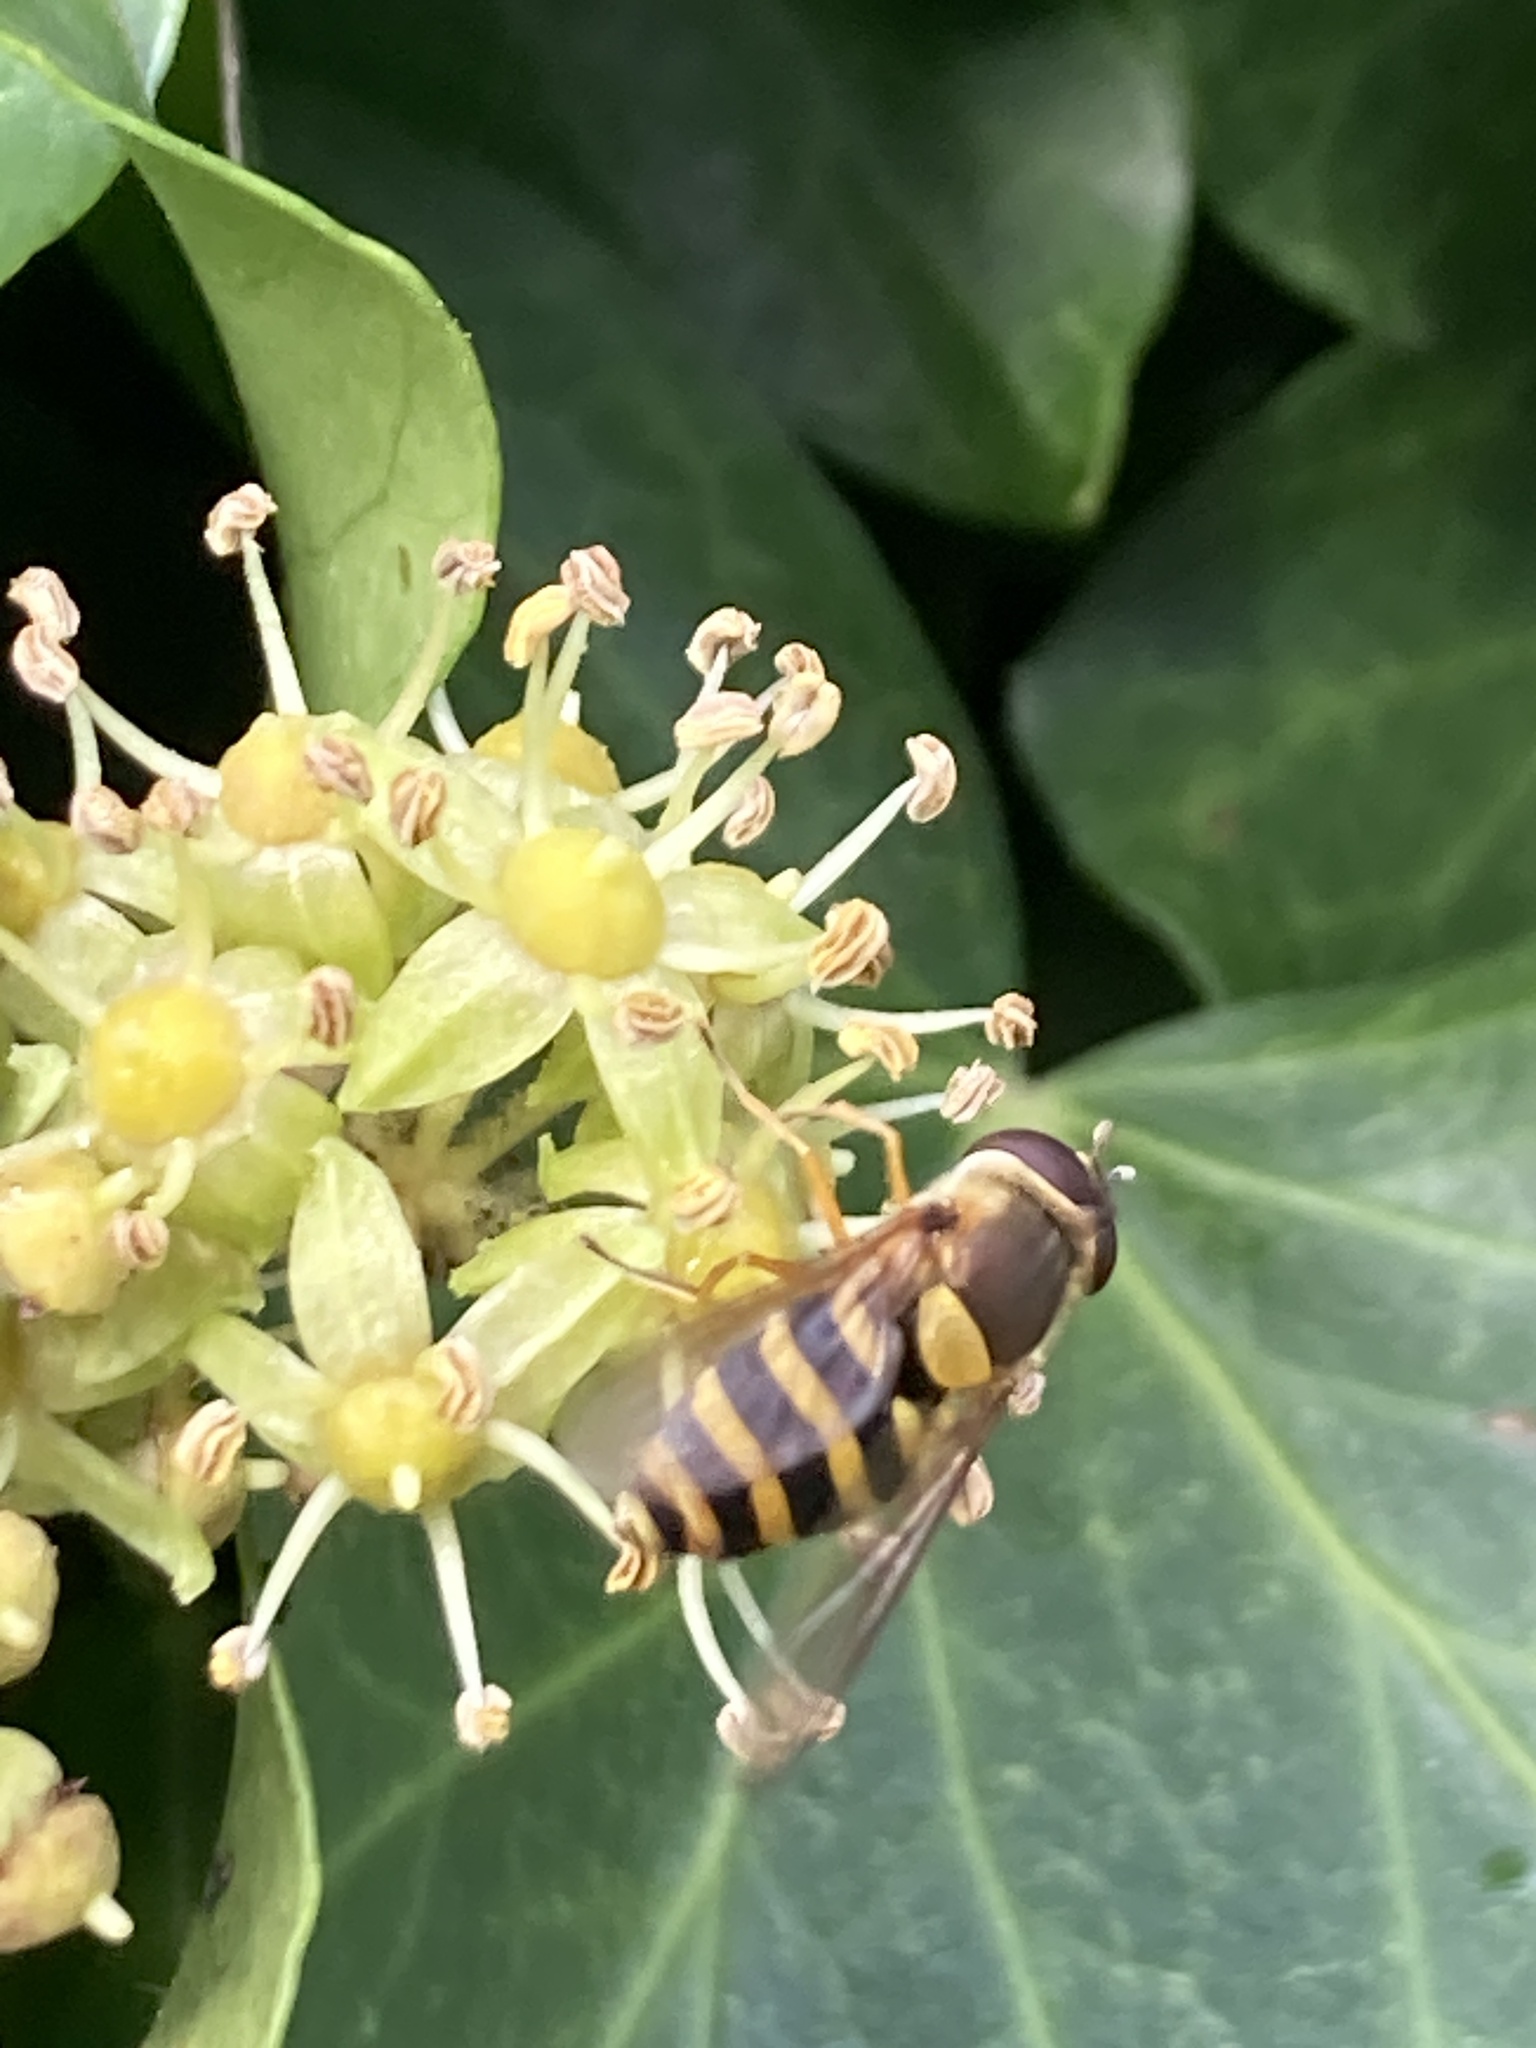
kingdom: Animalia
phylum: Arthropoda
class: Insecta
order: Diptera
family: Syrphidae
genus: Syrphus
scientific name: Syrphus ribesii
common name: Common flower fly
